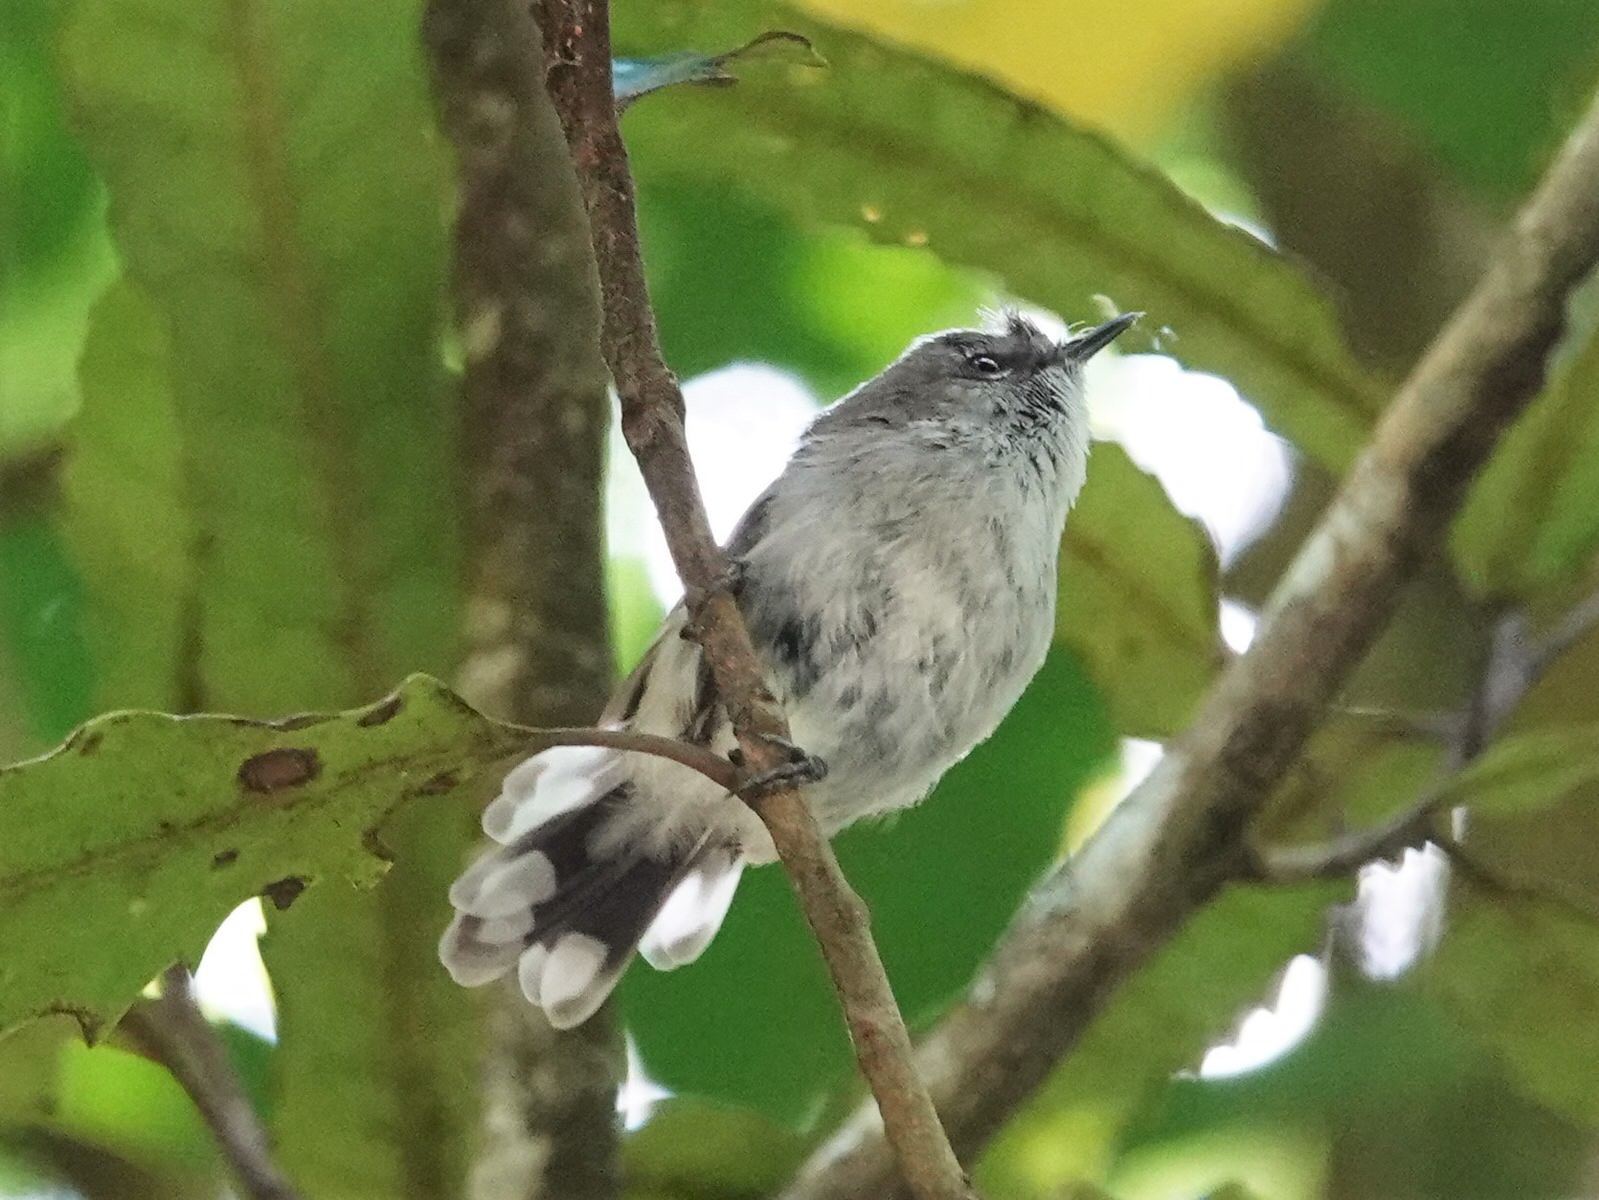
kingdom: Animalia
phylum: Chordata
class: Aves
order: Passeriformes
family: Acanthizidae
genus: Gerygone
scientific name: Gerygone igata
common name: Grey gerygone
